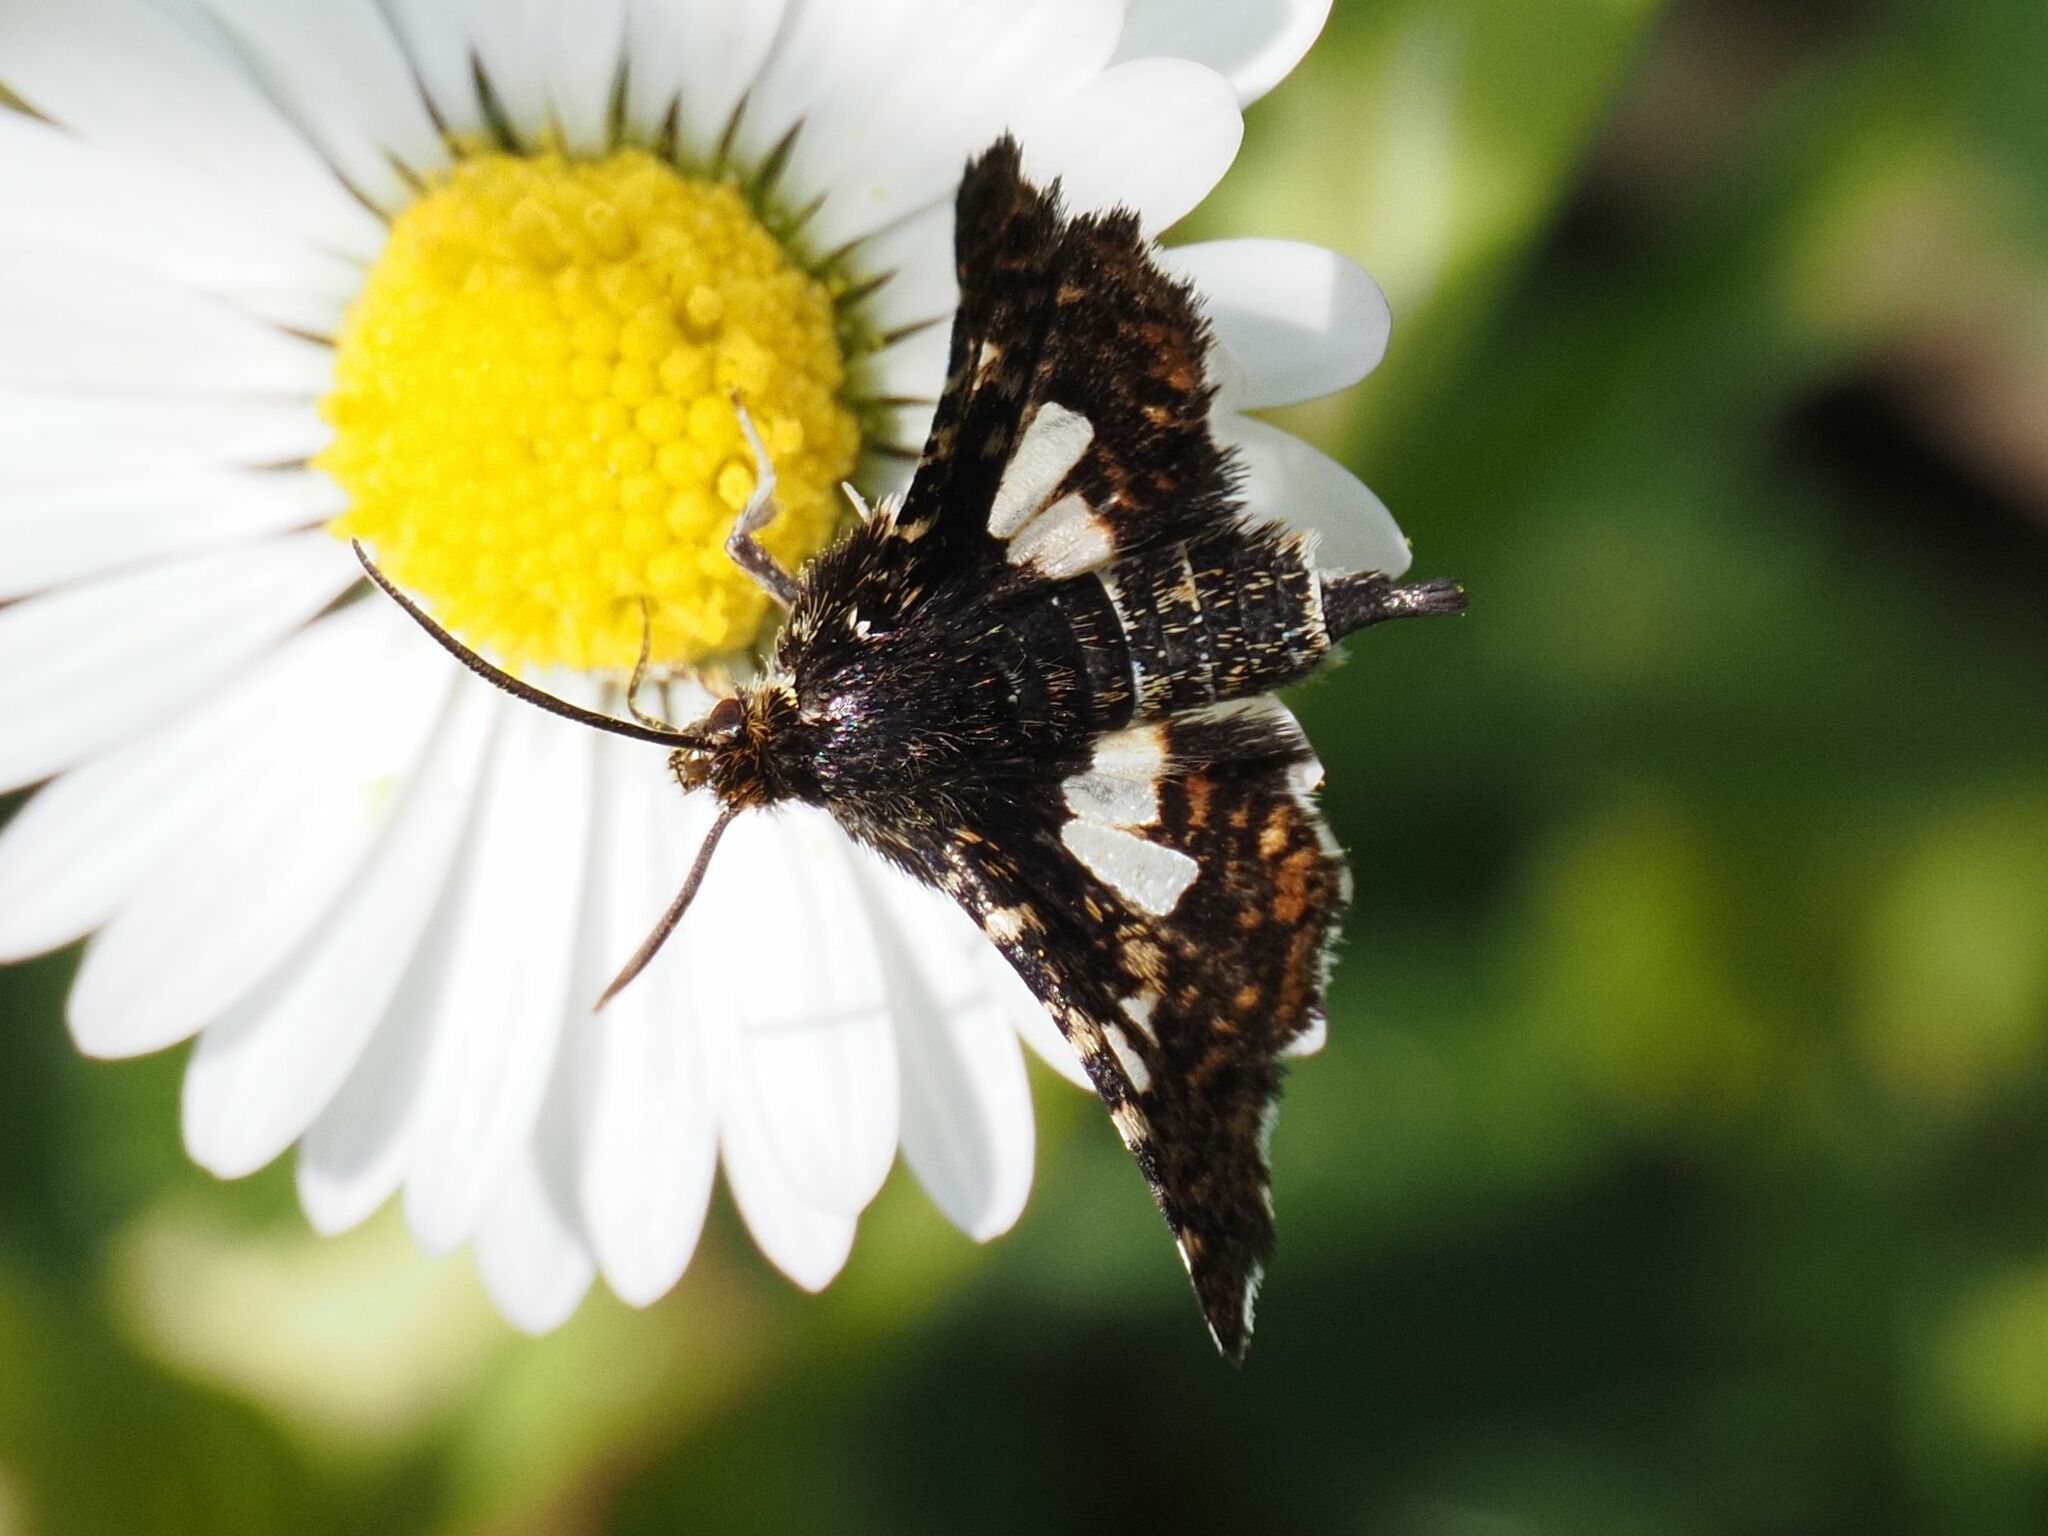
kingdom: Animalia
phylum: Arthropoda
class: Insecta
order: Lepidoptera
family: Thyrididae
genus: Thyris
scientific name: Thyris fenestrella
